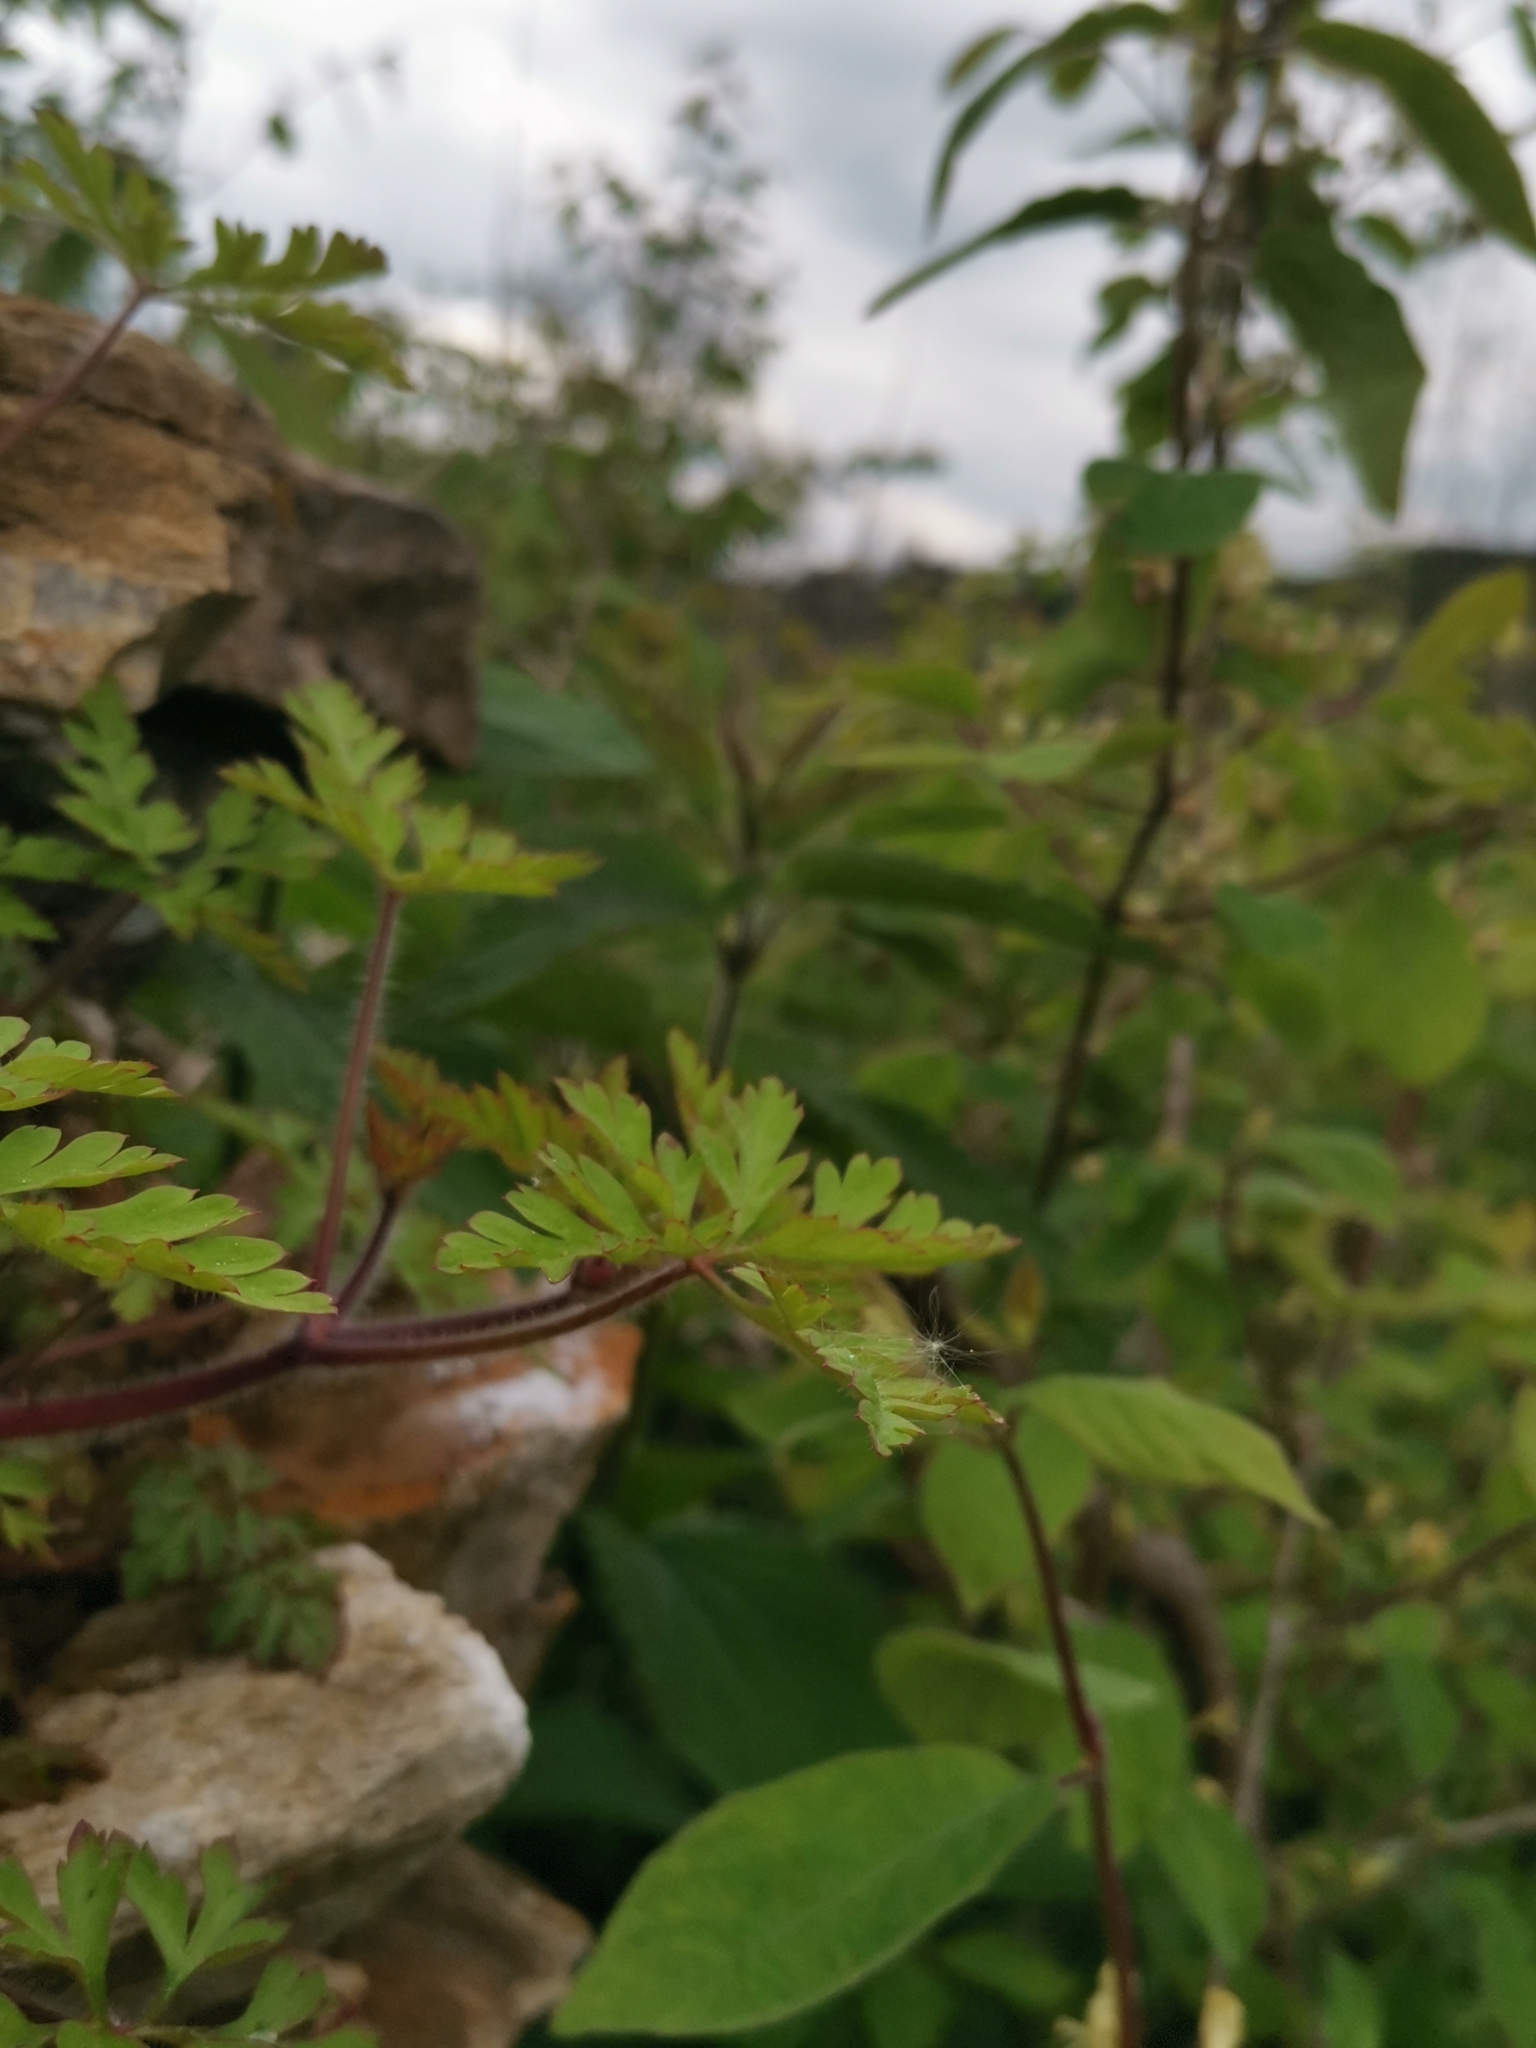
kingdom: Plantae
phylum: Tracheophyta
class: Magnoliopsida
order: Geraniales
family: Geraniaceae
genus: Geranium
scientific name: Geranium robertianum
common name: Herb-robert
